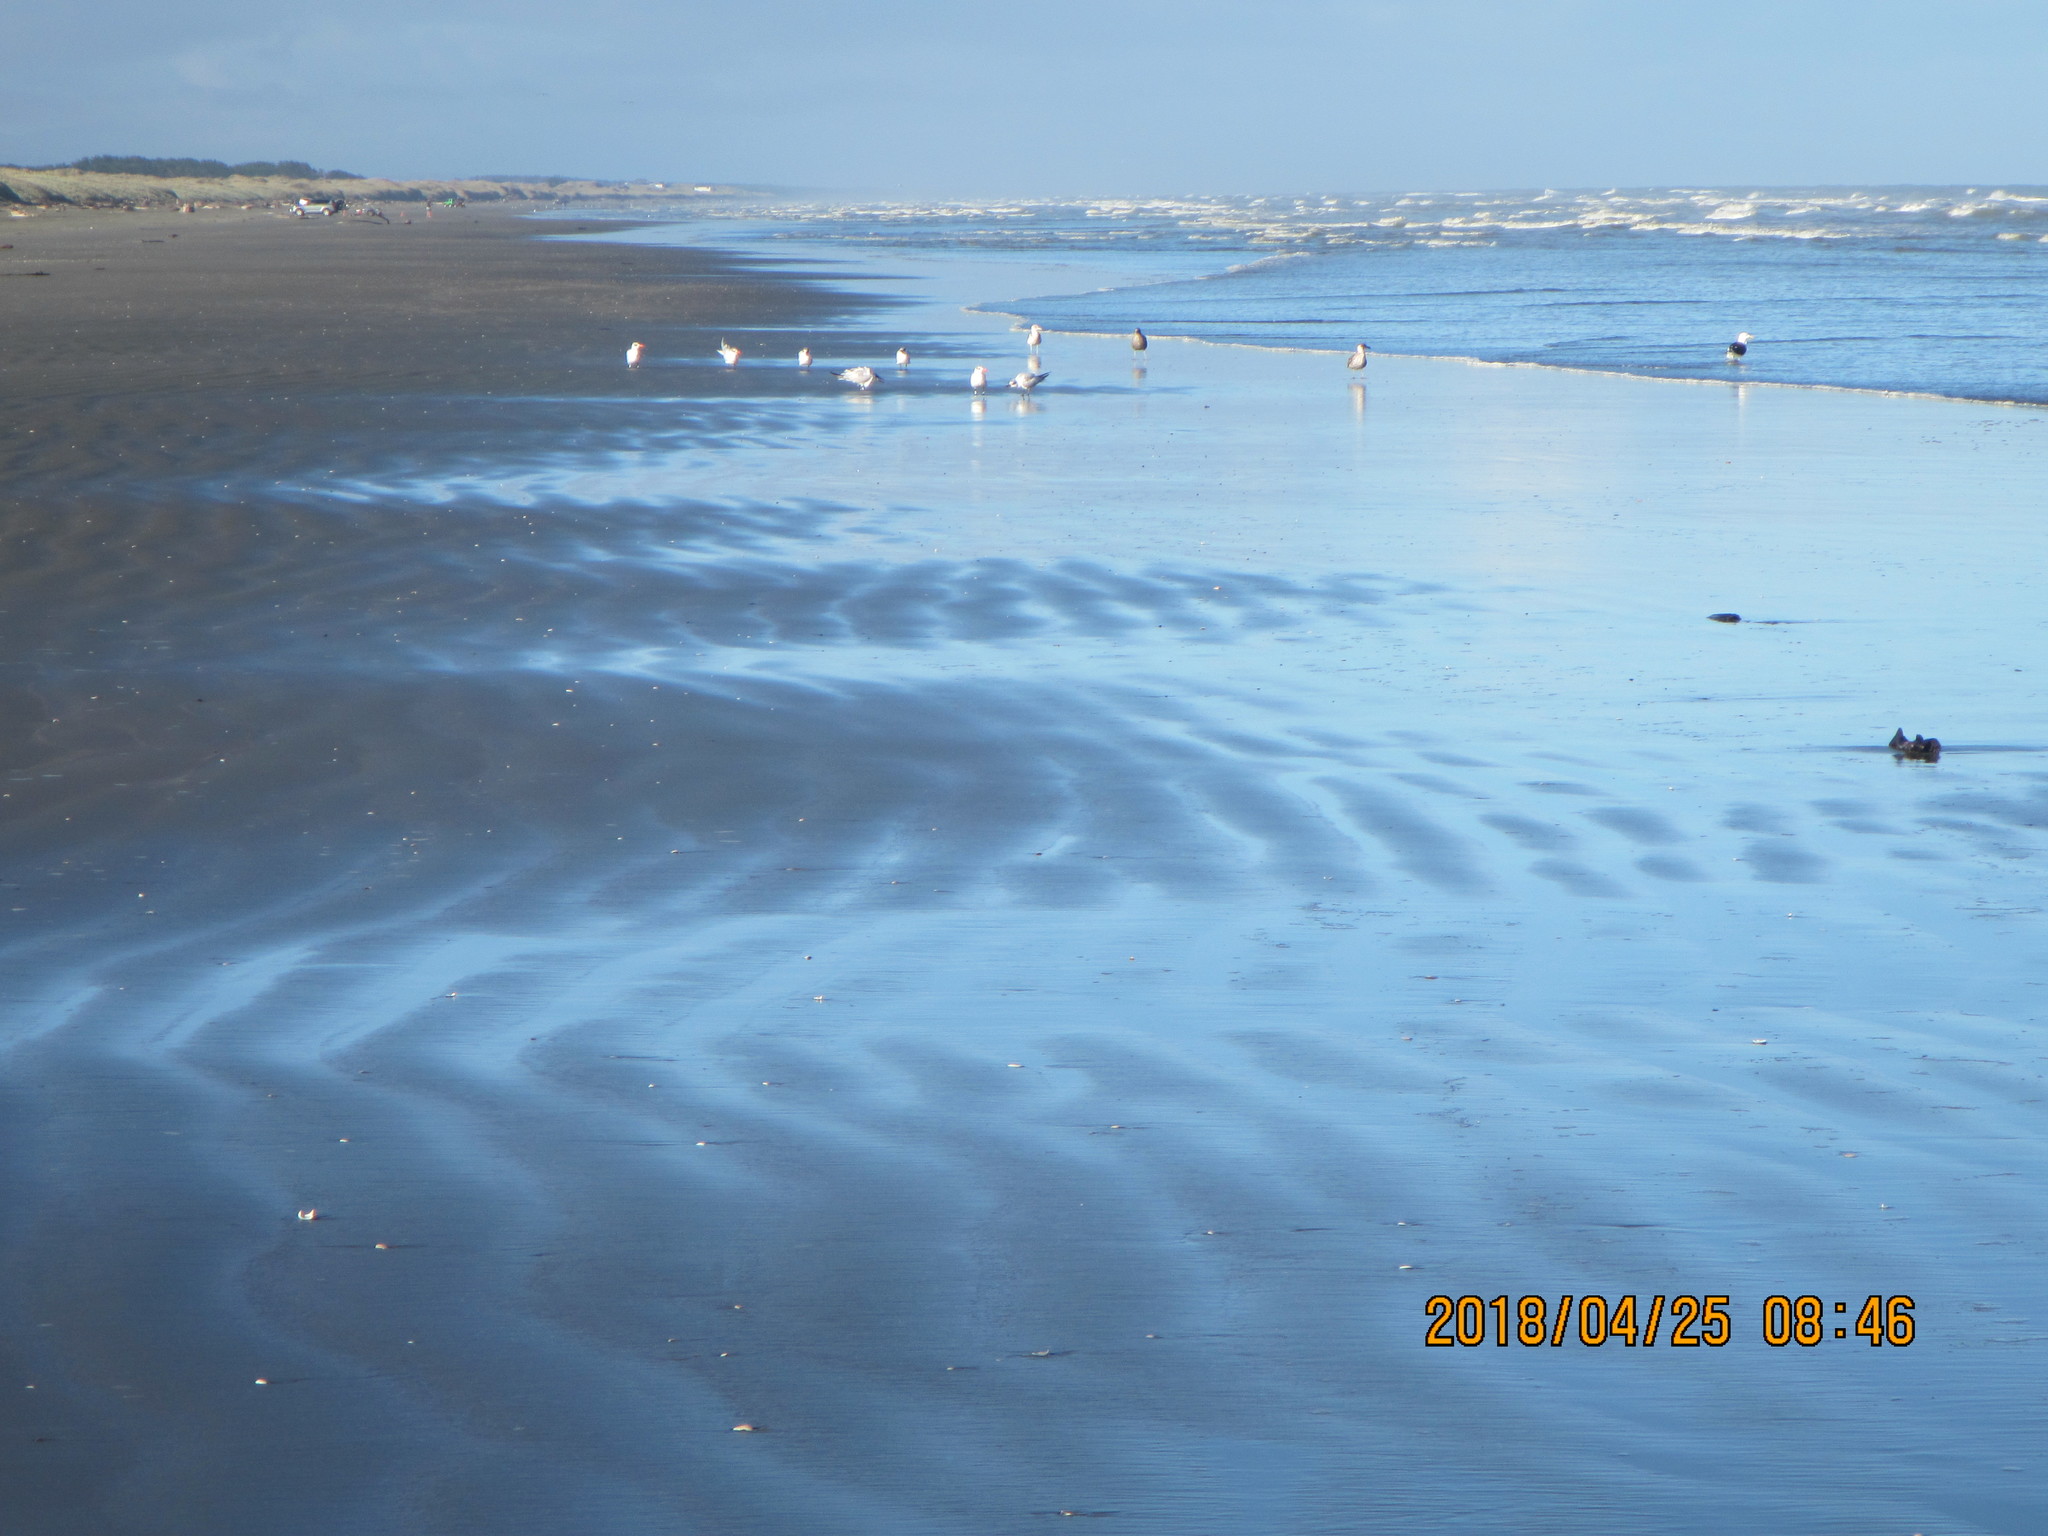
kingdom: Animalia
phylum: Chordata
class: Aves
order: Charadriiformes
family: Laridae
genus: Hydroprogne
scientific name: Hydroprogne caspia
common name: Caspian tern
